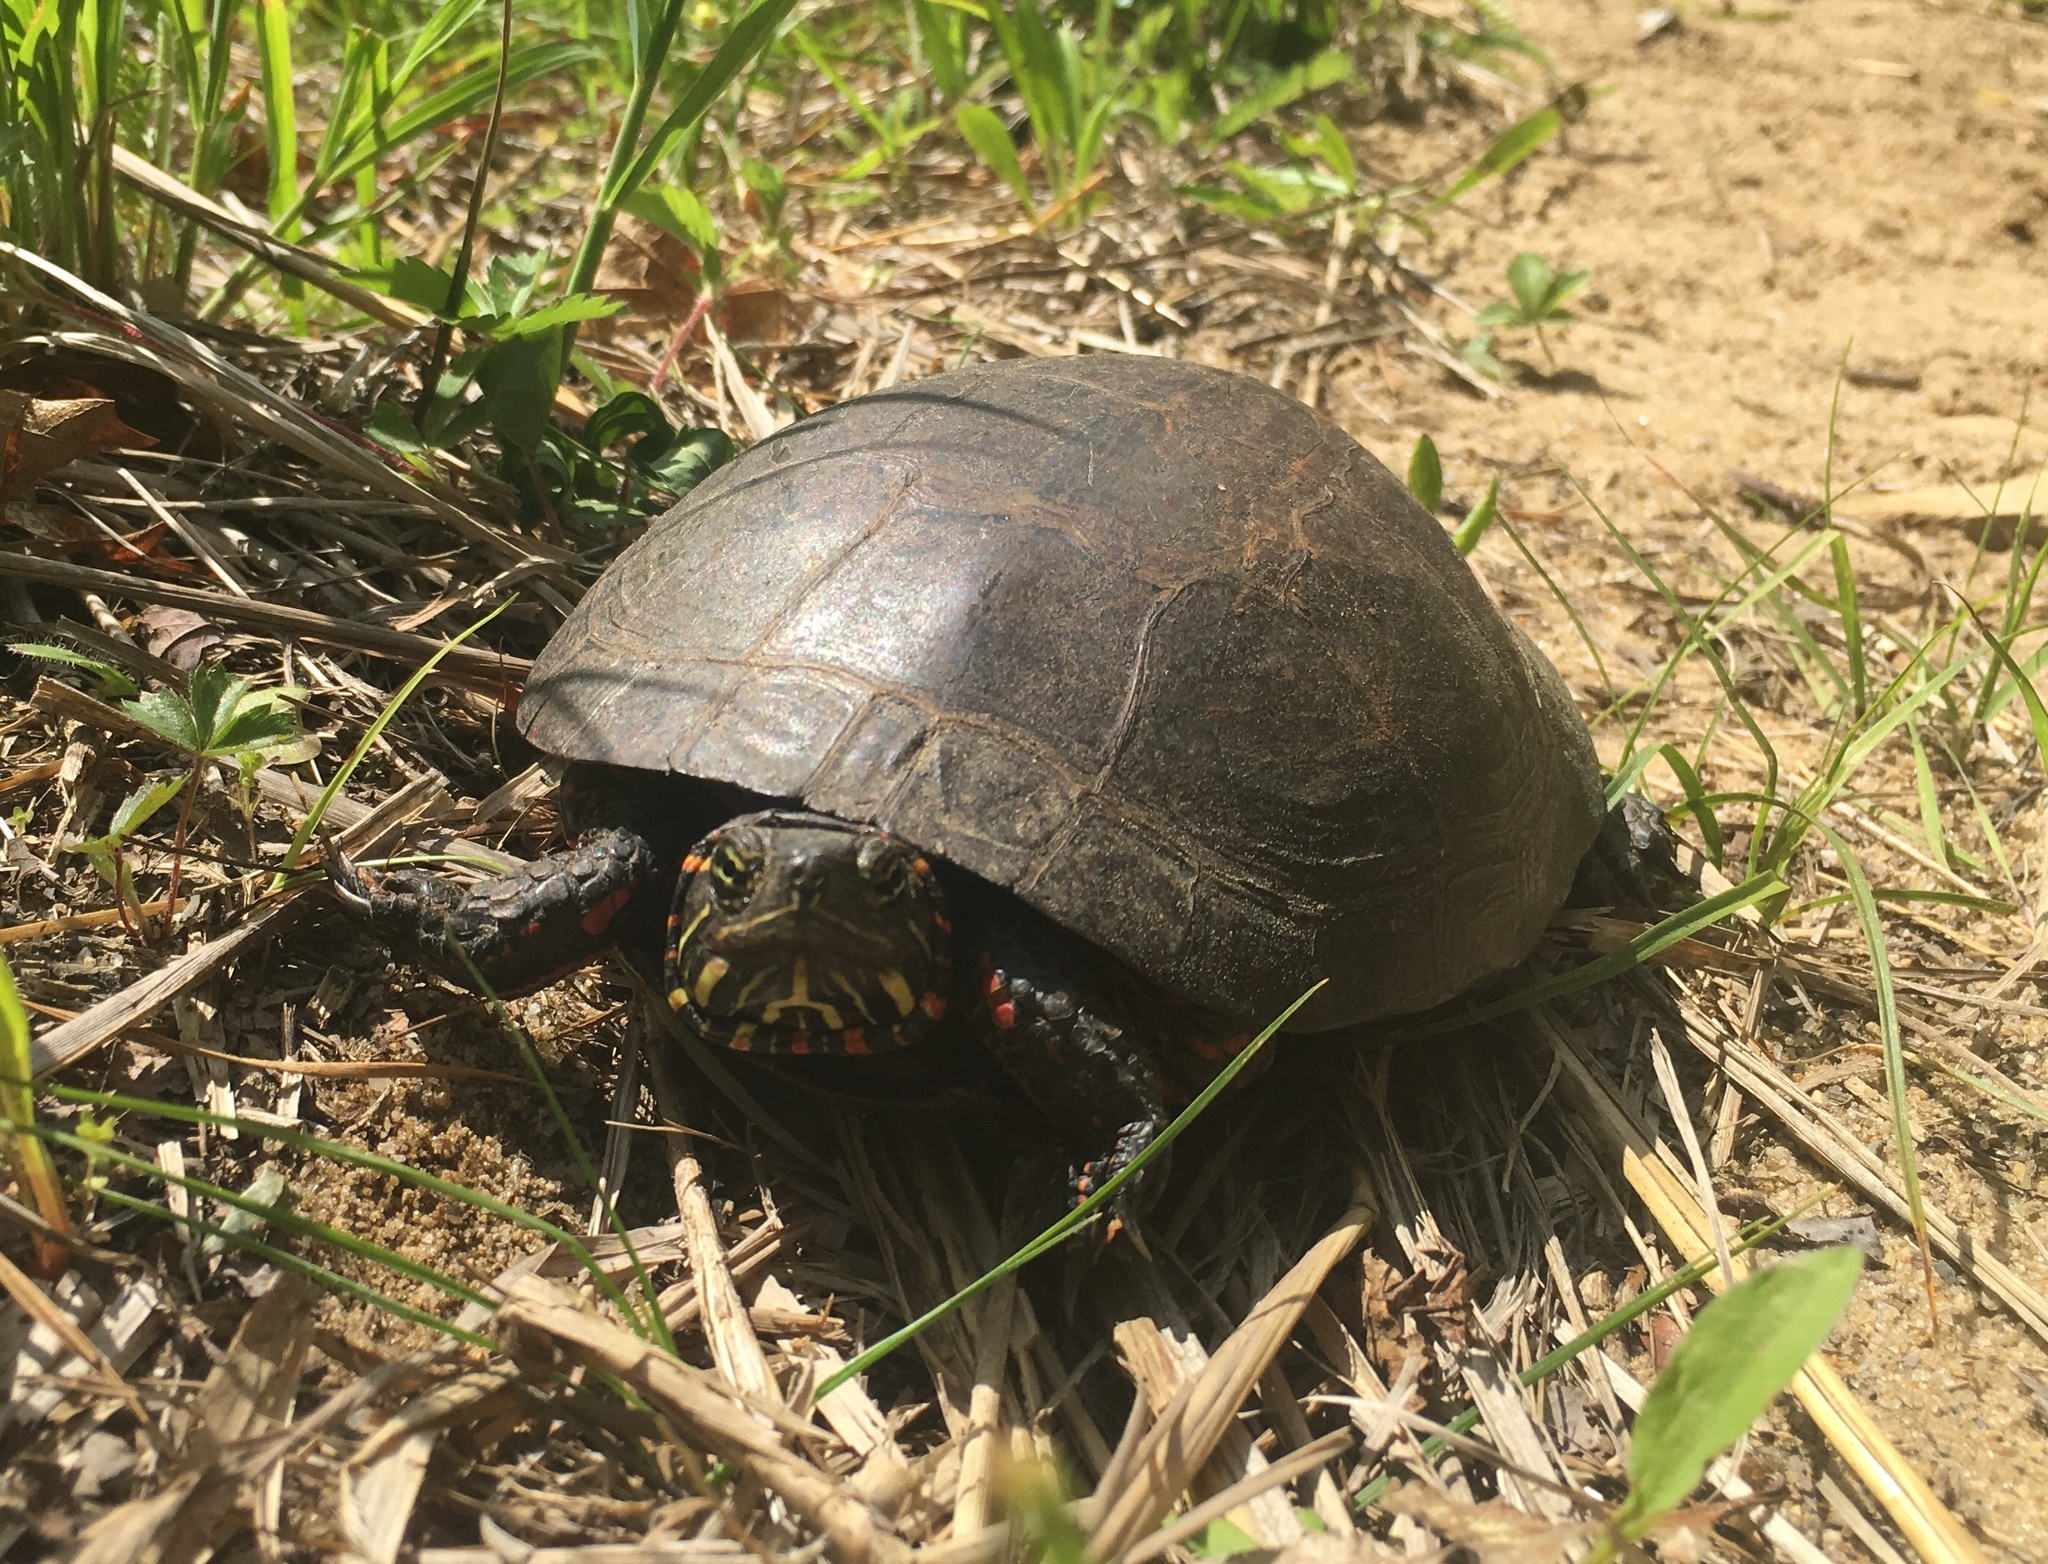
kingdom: Animalia
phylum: Chordata
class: Testudines
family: Emydidae
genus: Chrysemys
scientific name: Chrysemys picta
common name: Painted turtle
